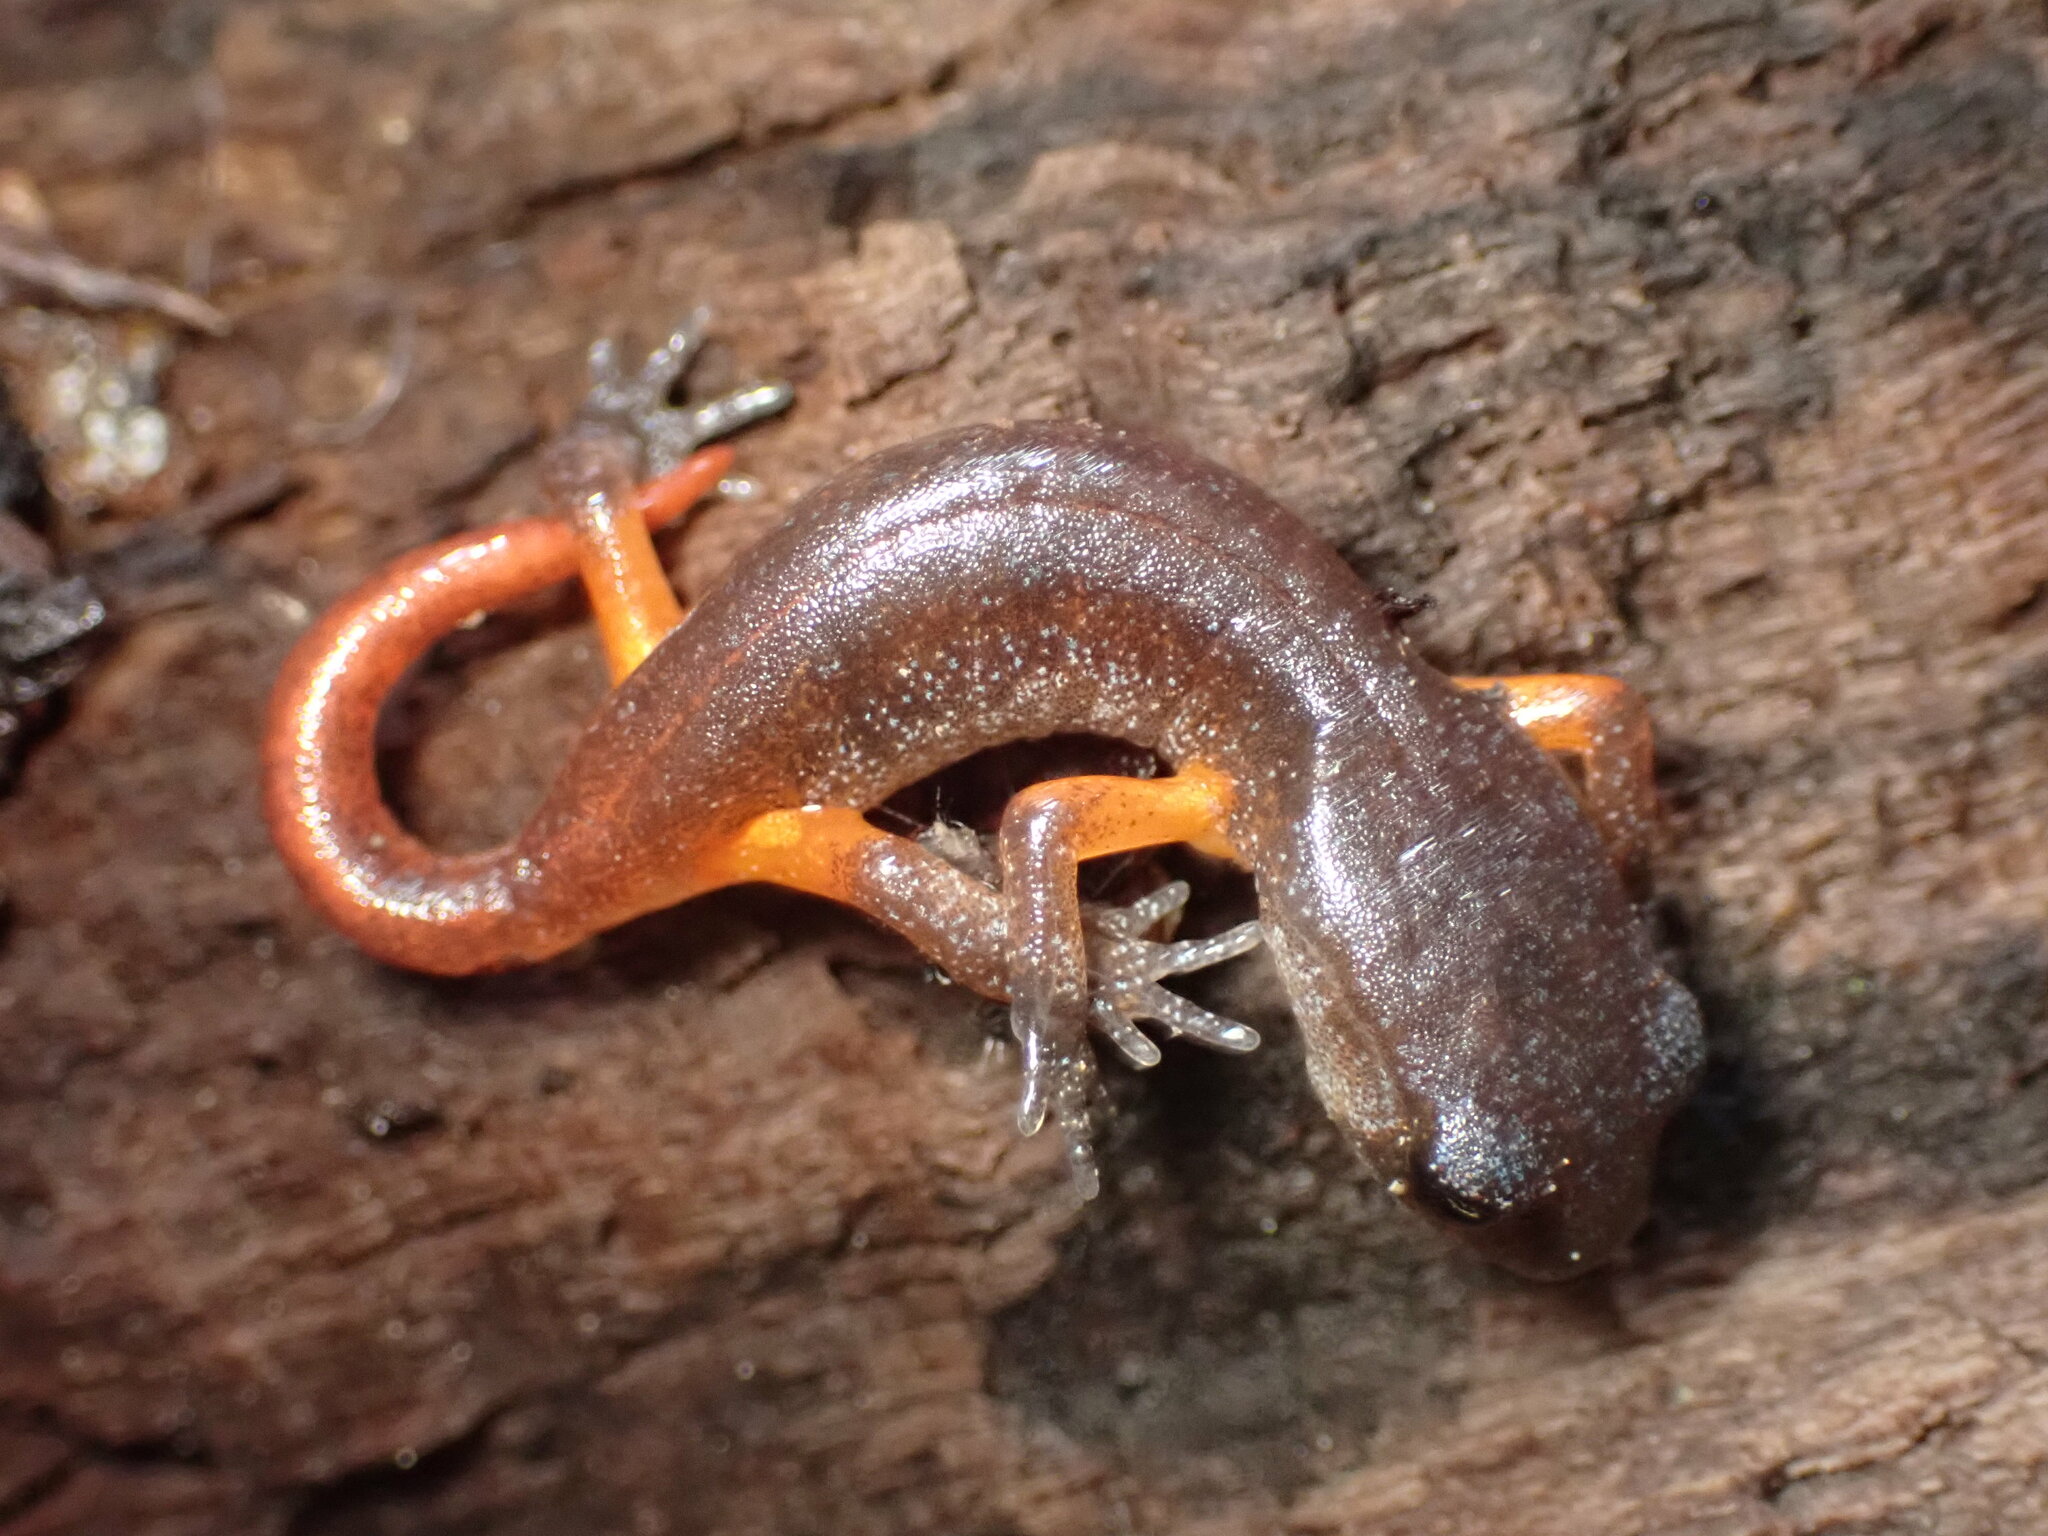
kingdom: Animalia
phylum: Chordata
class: Amphibia
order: Caudata
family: Plethodontidae
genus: Ensatina
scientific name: Ensatina eschscholtzii
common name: Ensatina
